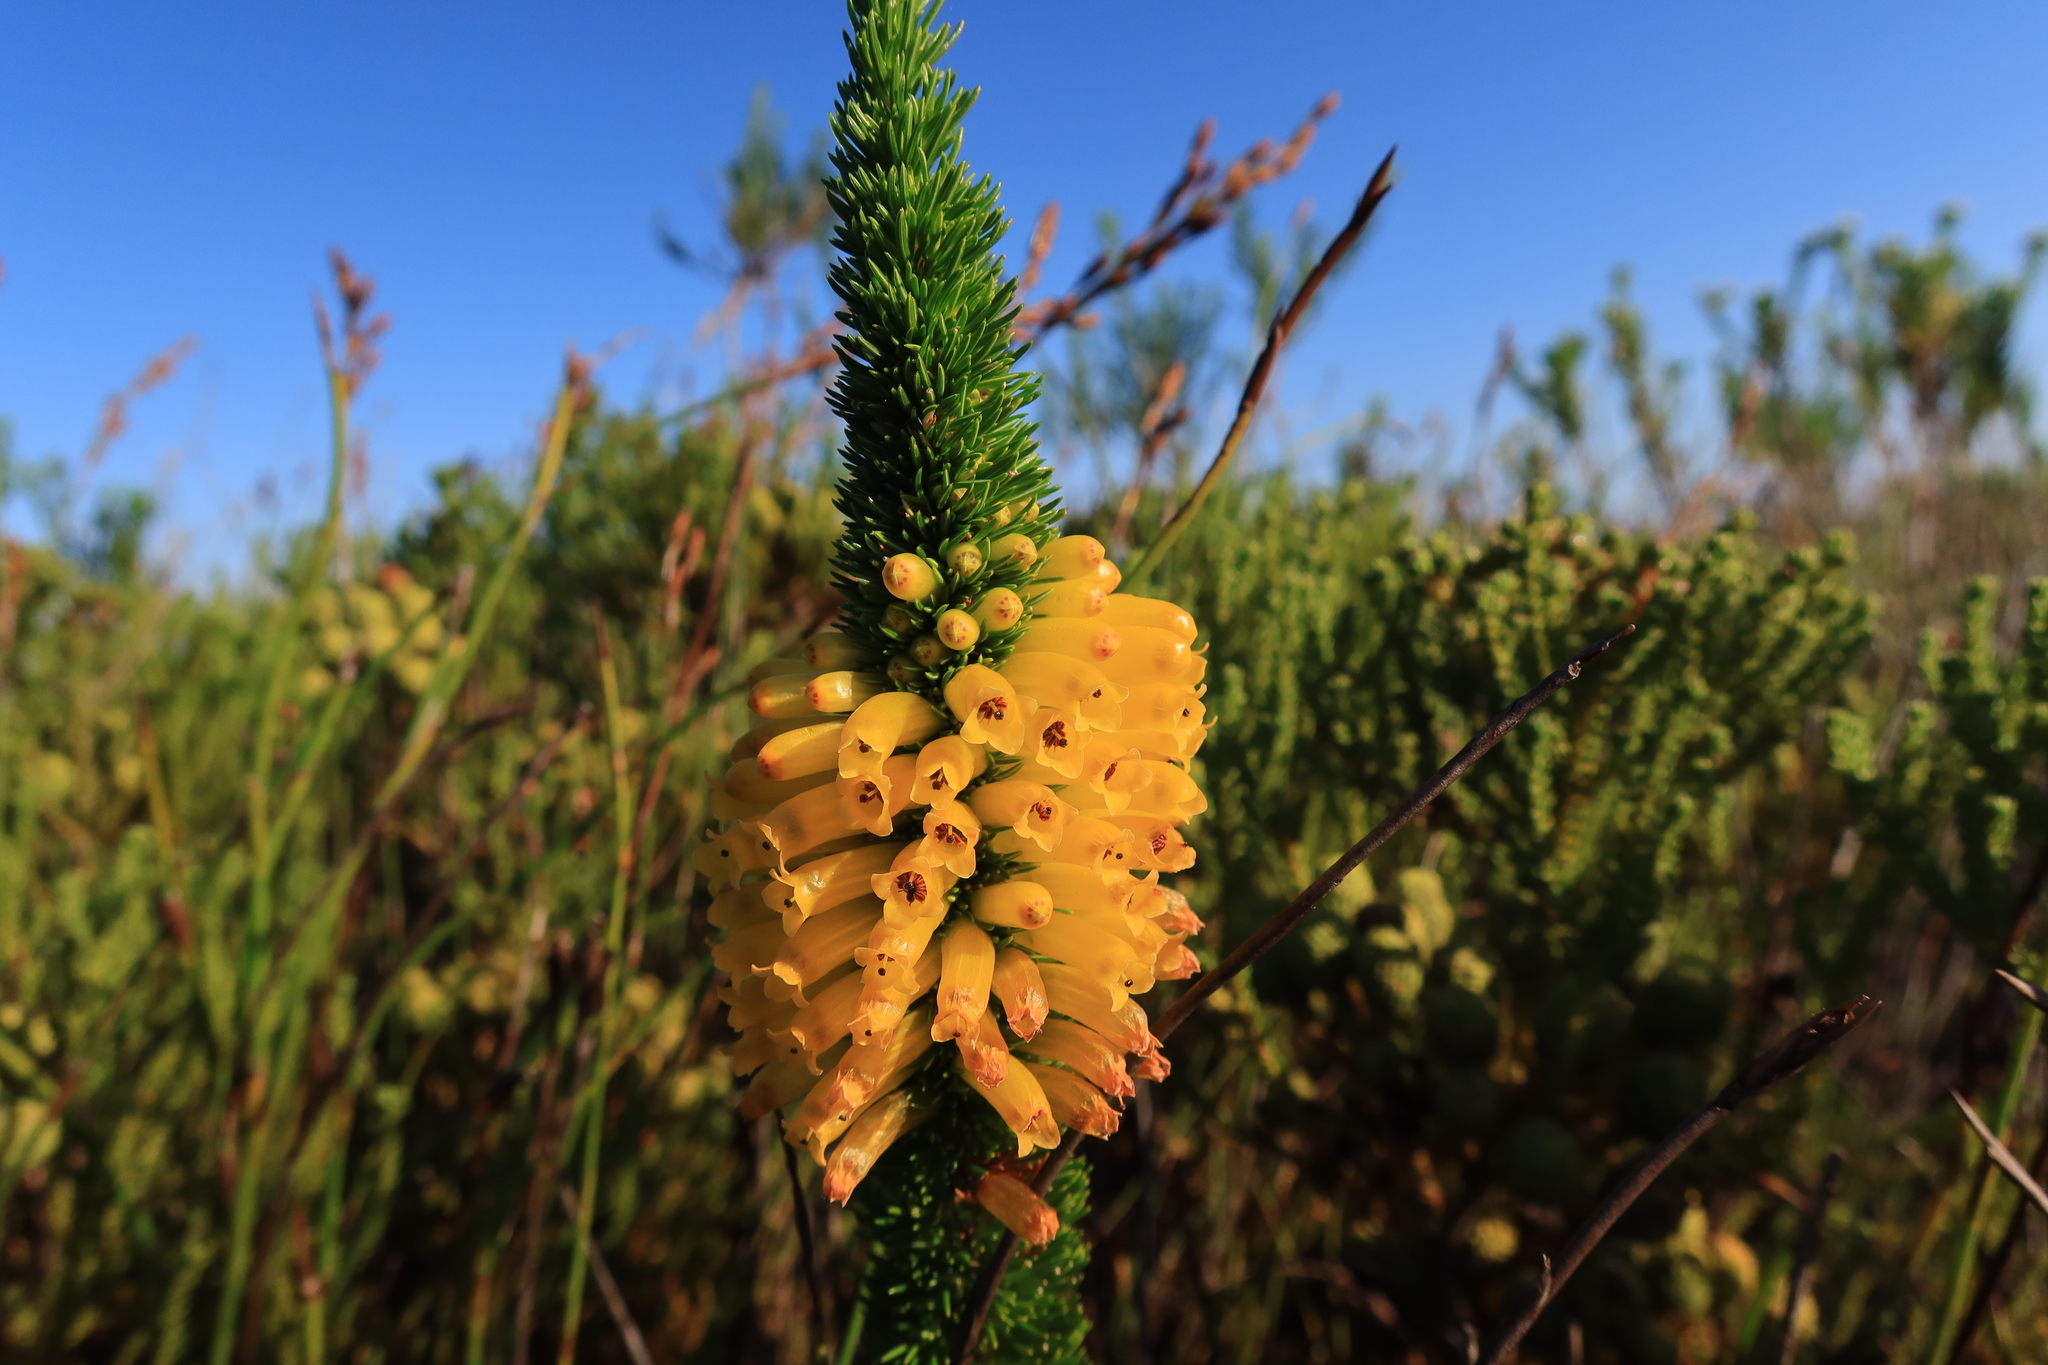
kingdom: Plantae
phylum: Tracheophyta
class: Magnoliopsida
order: Ericales
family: Ericaceae
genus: Erica
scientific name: Erica patersonia
